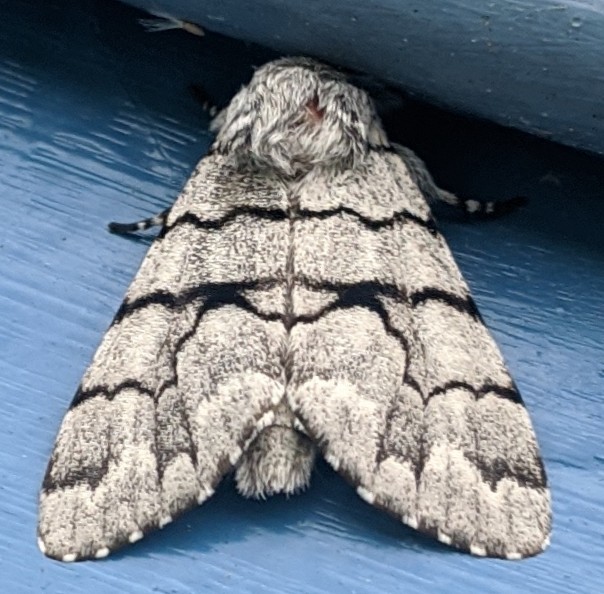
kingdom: Animalia
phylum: Arthropoda
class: Insecta
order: Lepidoptera
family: Noctuidae
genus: Panthea
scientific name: Panthea furcilla
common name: Eastern panthea moth
